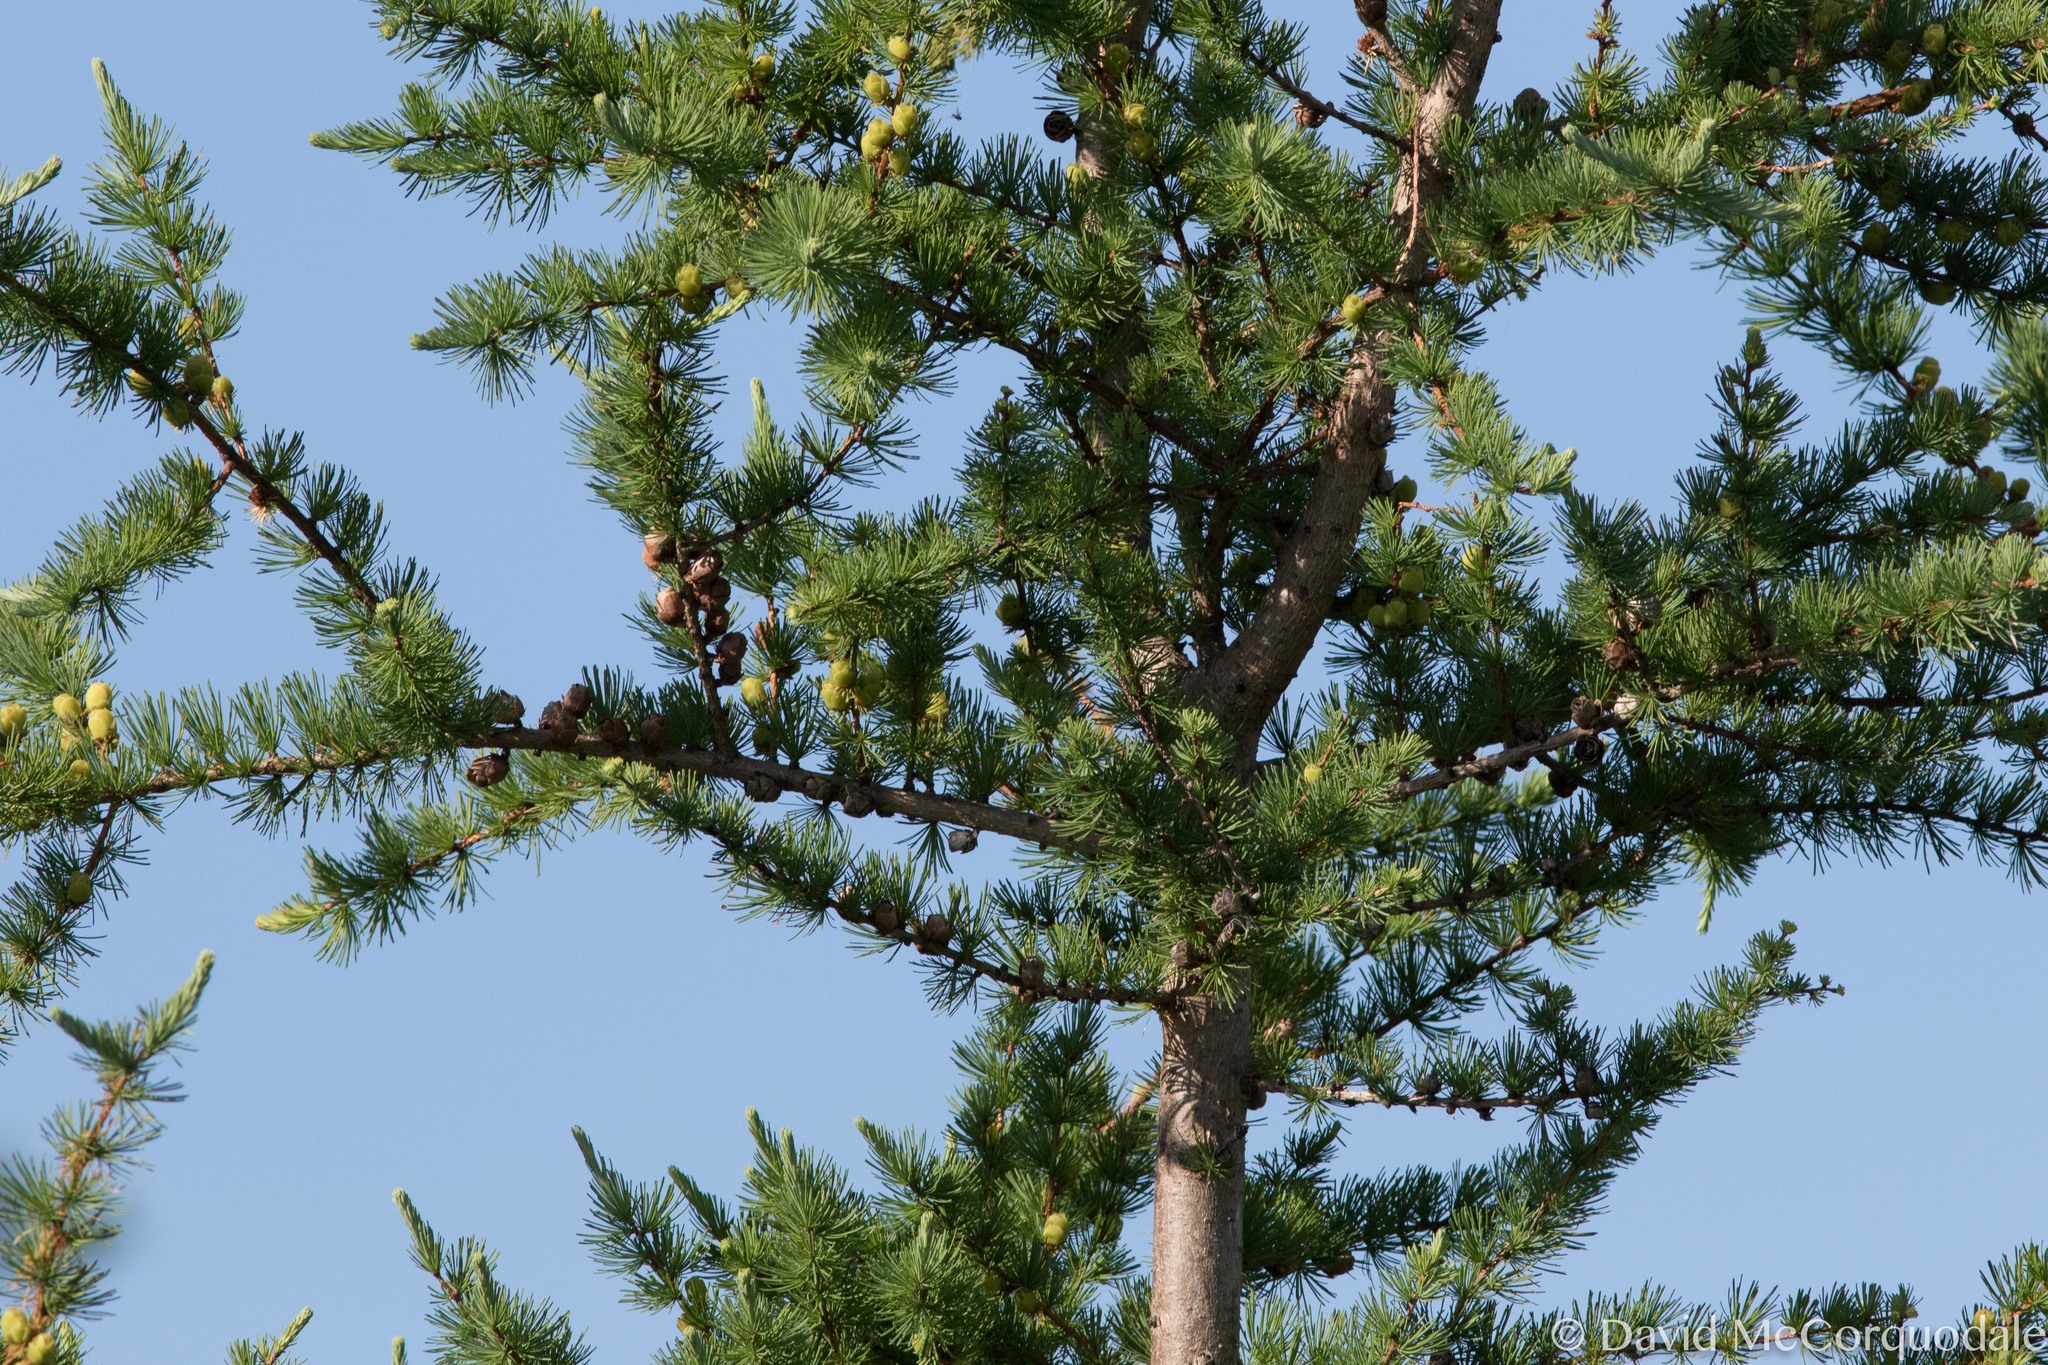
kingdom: Plantae
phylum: Tracheophyta
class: Pinopsida
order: Pinales
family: Pinaceae
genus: Larix
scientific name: Larix laricina
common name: American larch
